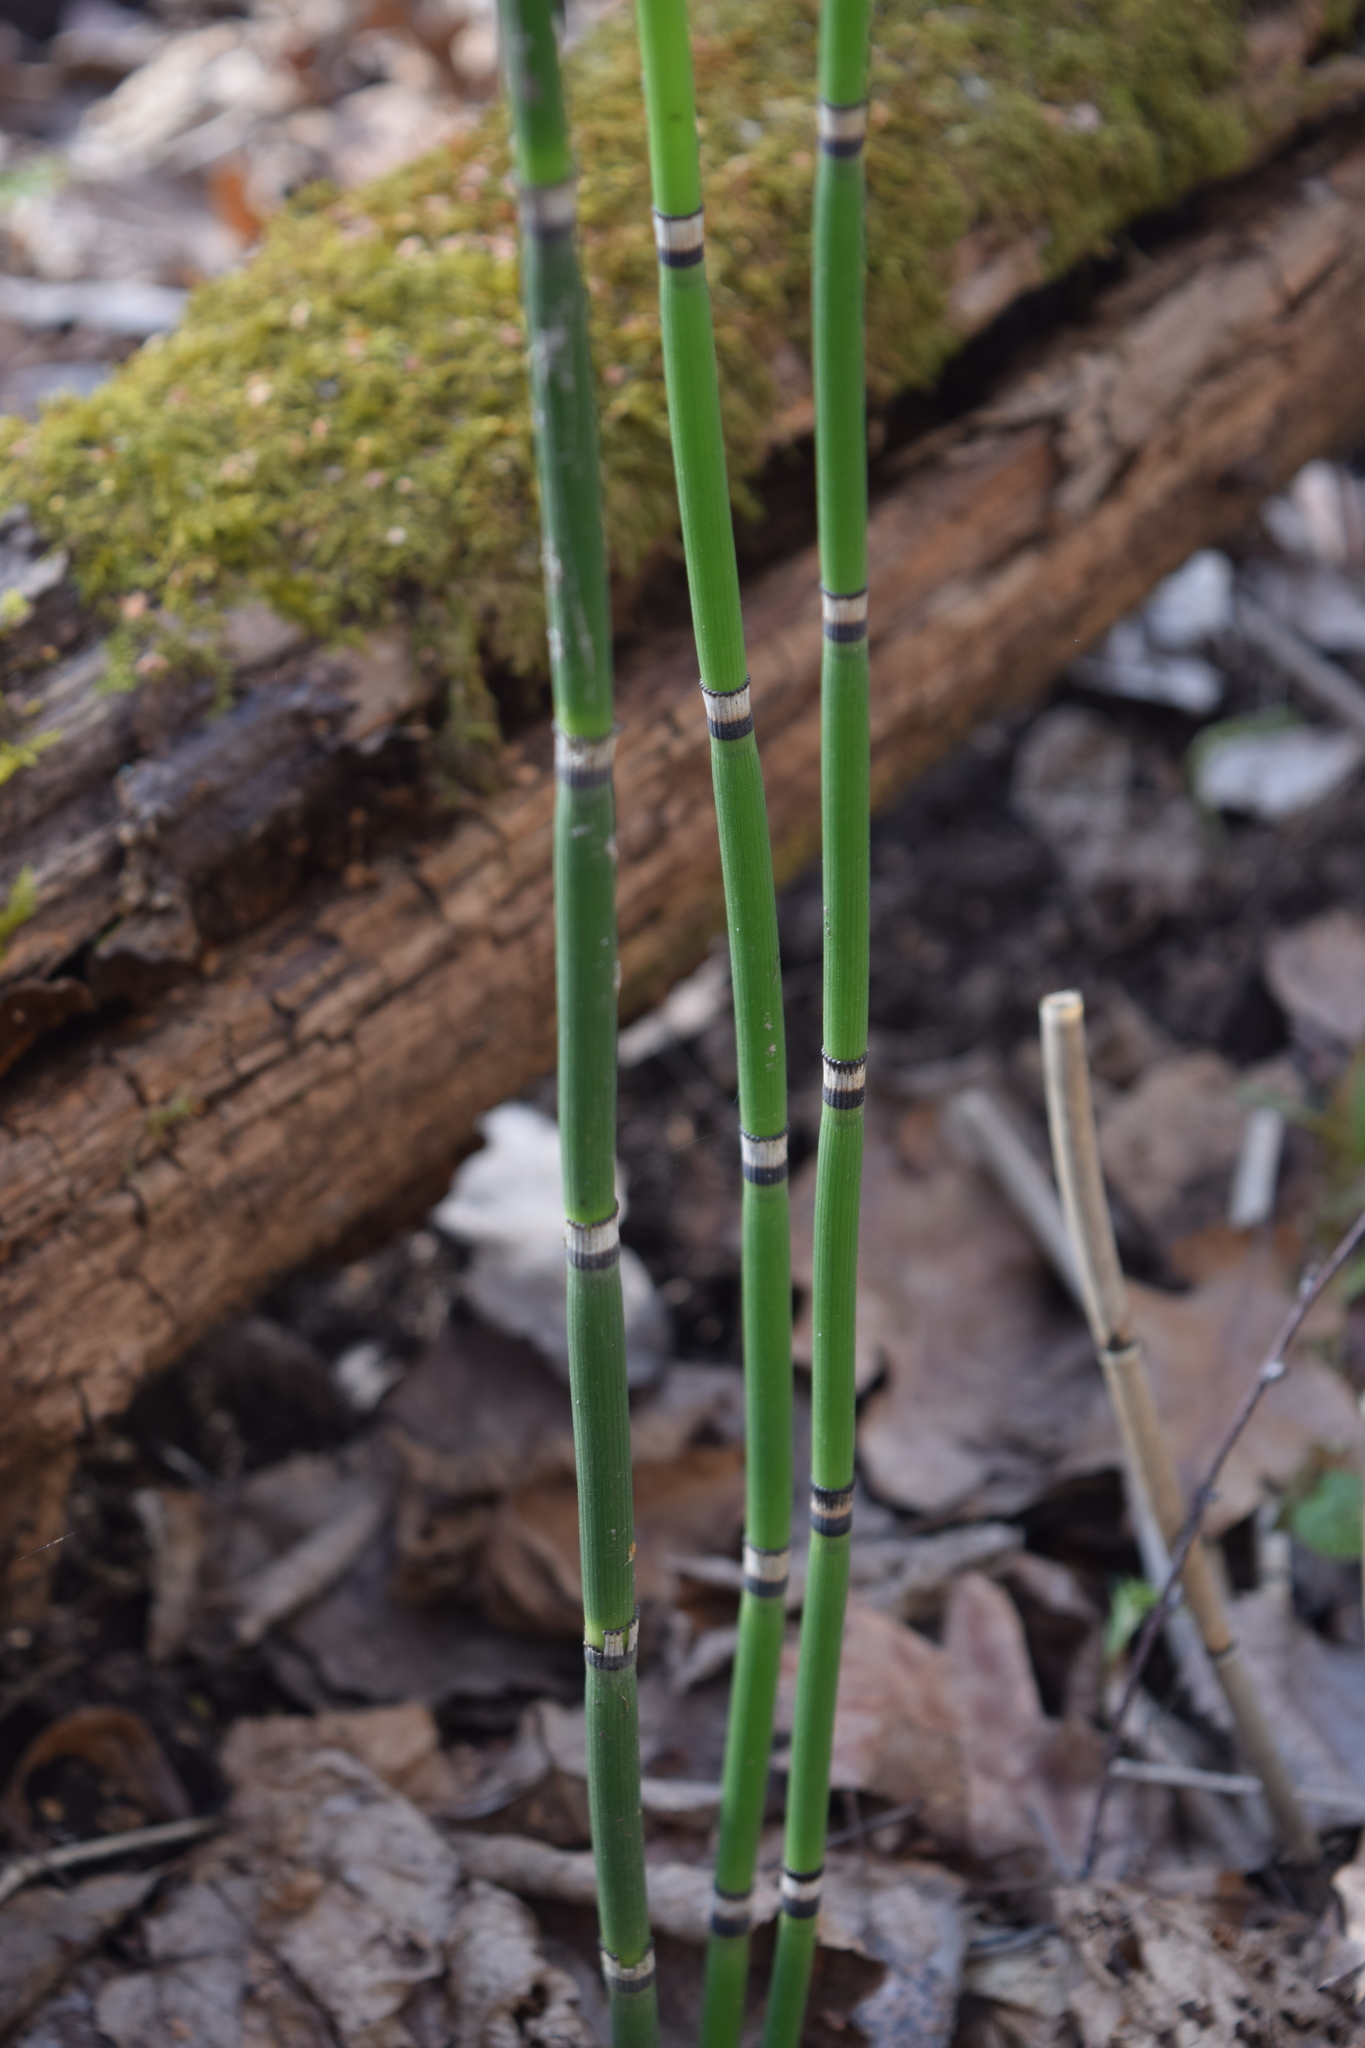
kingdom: Plantae
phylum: Tracheophyta
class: Polypodiopsida
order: Equisetales
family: Equisetaceae
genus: Equisetum
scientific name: Equisetum hyemale
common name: Rough horsetail
